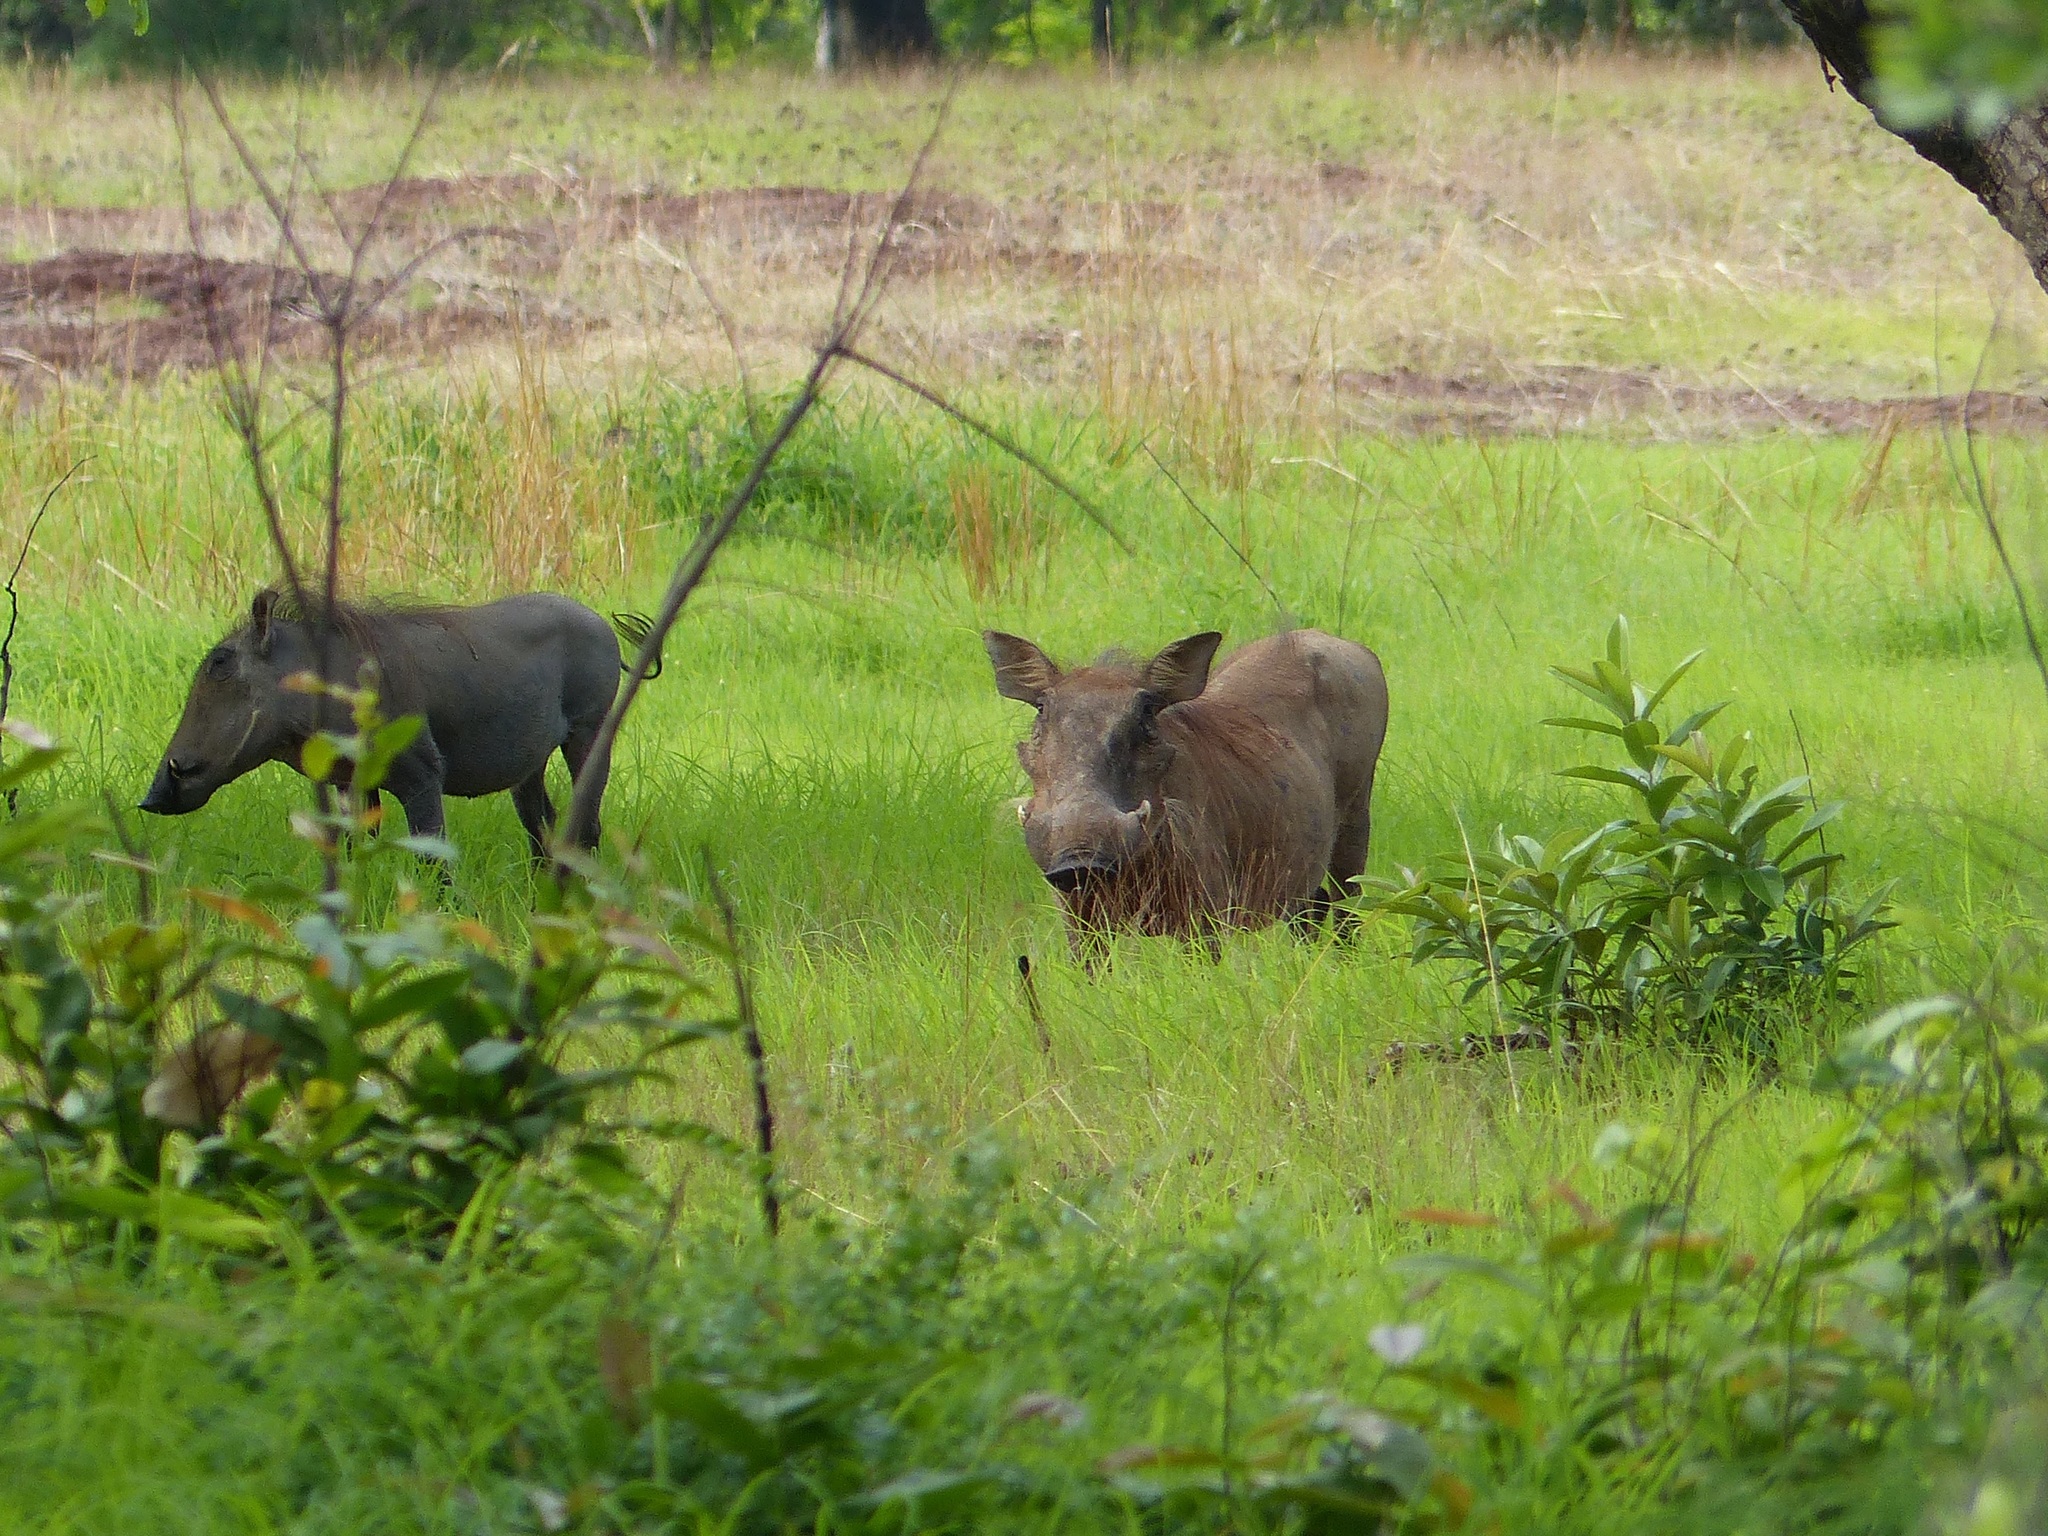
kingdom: Animalia
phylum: Chordata
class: Mammalia
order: Artiodactyla
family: Suidae
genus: Phacochoerus
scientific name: Phacochoerus africanus
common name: Common warthog
